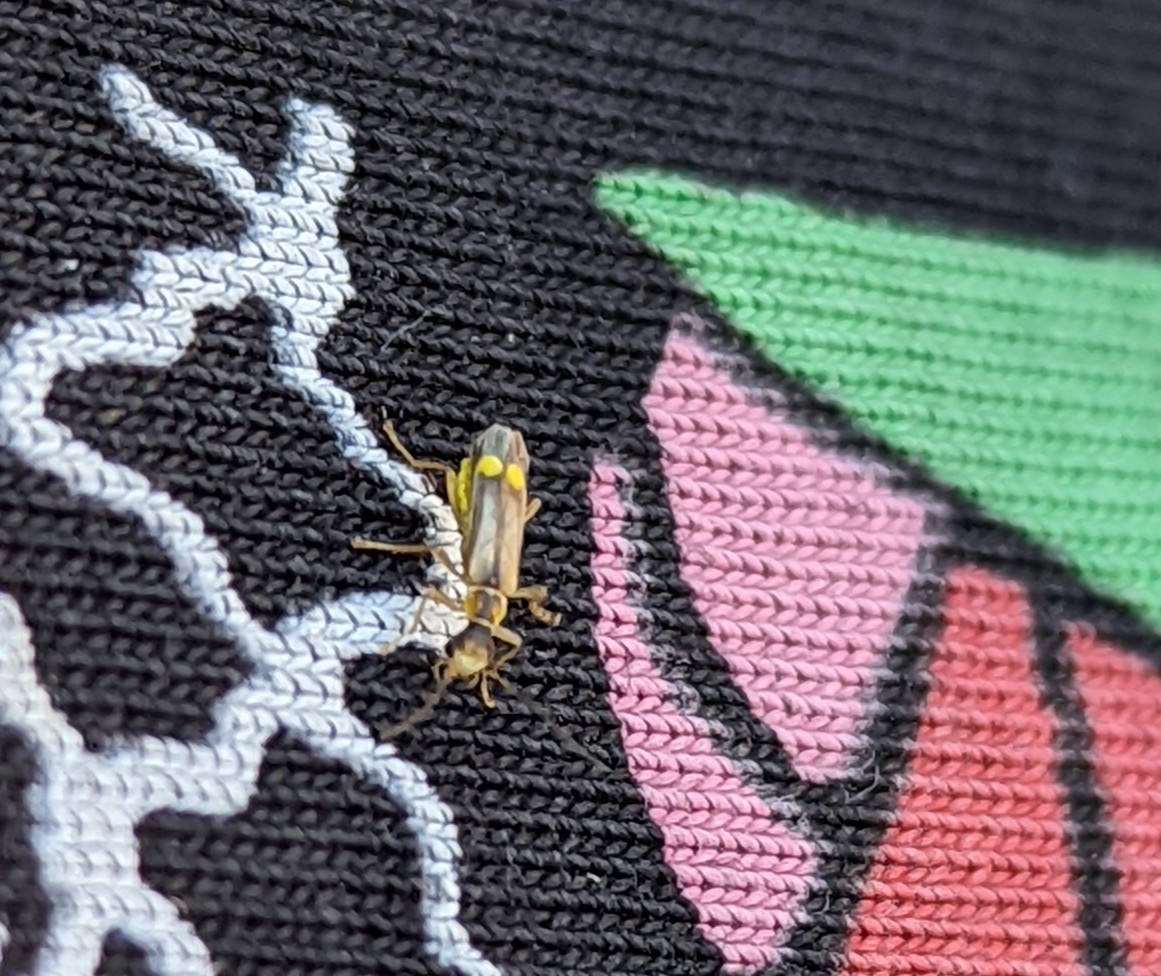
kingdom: Animalia
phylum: Arthropoda
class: Insecta
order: Coleoptera
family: Cantharidae
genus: Malthinus
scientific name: Malthinus seriepunctatus
